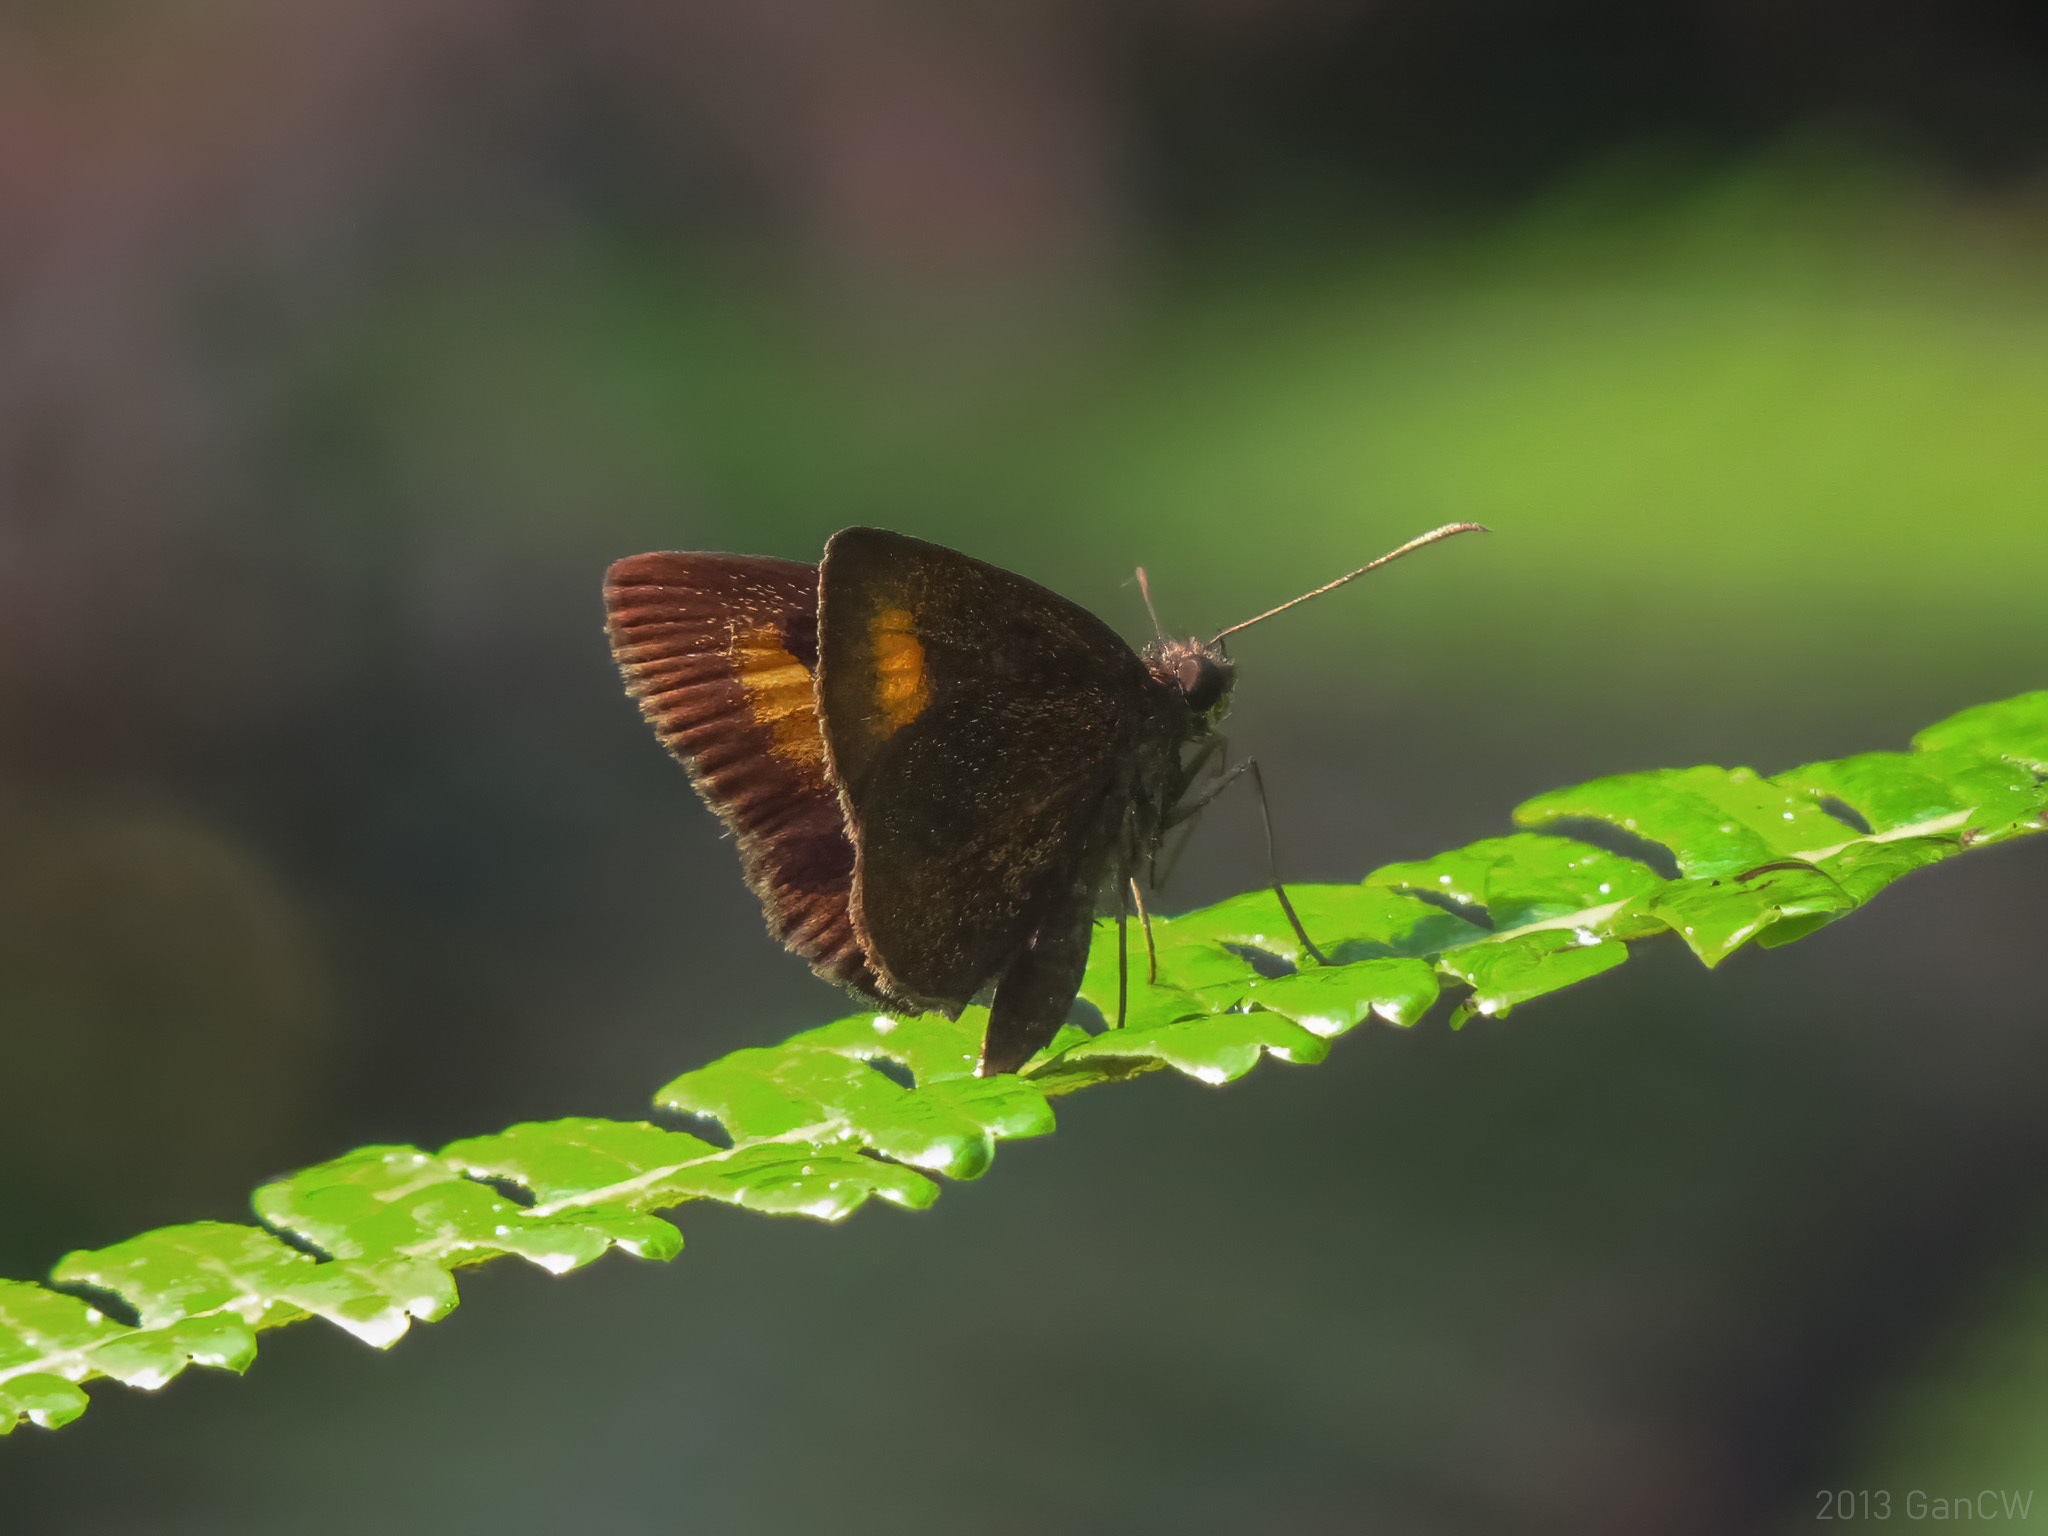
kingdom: Animalia
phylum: Arthropoda
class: Insecta
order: Lepidoptera
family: Hesperiidae
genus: Iambrix
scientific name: Iambrix Idmon obliquans
